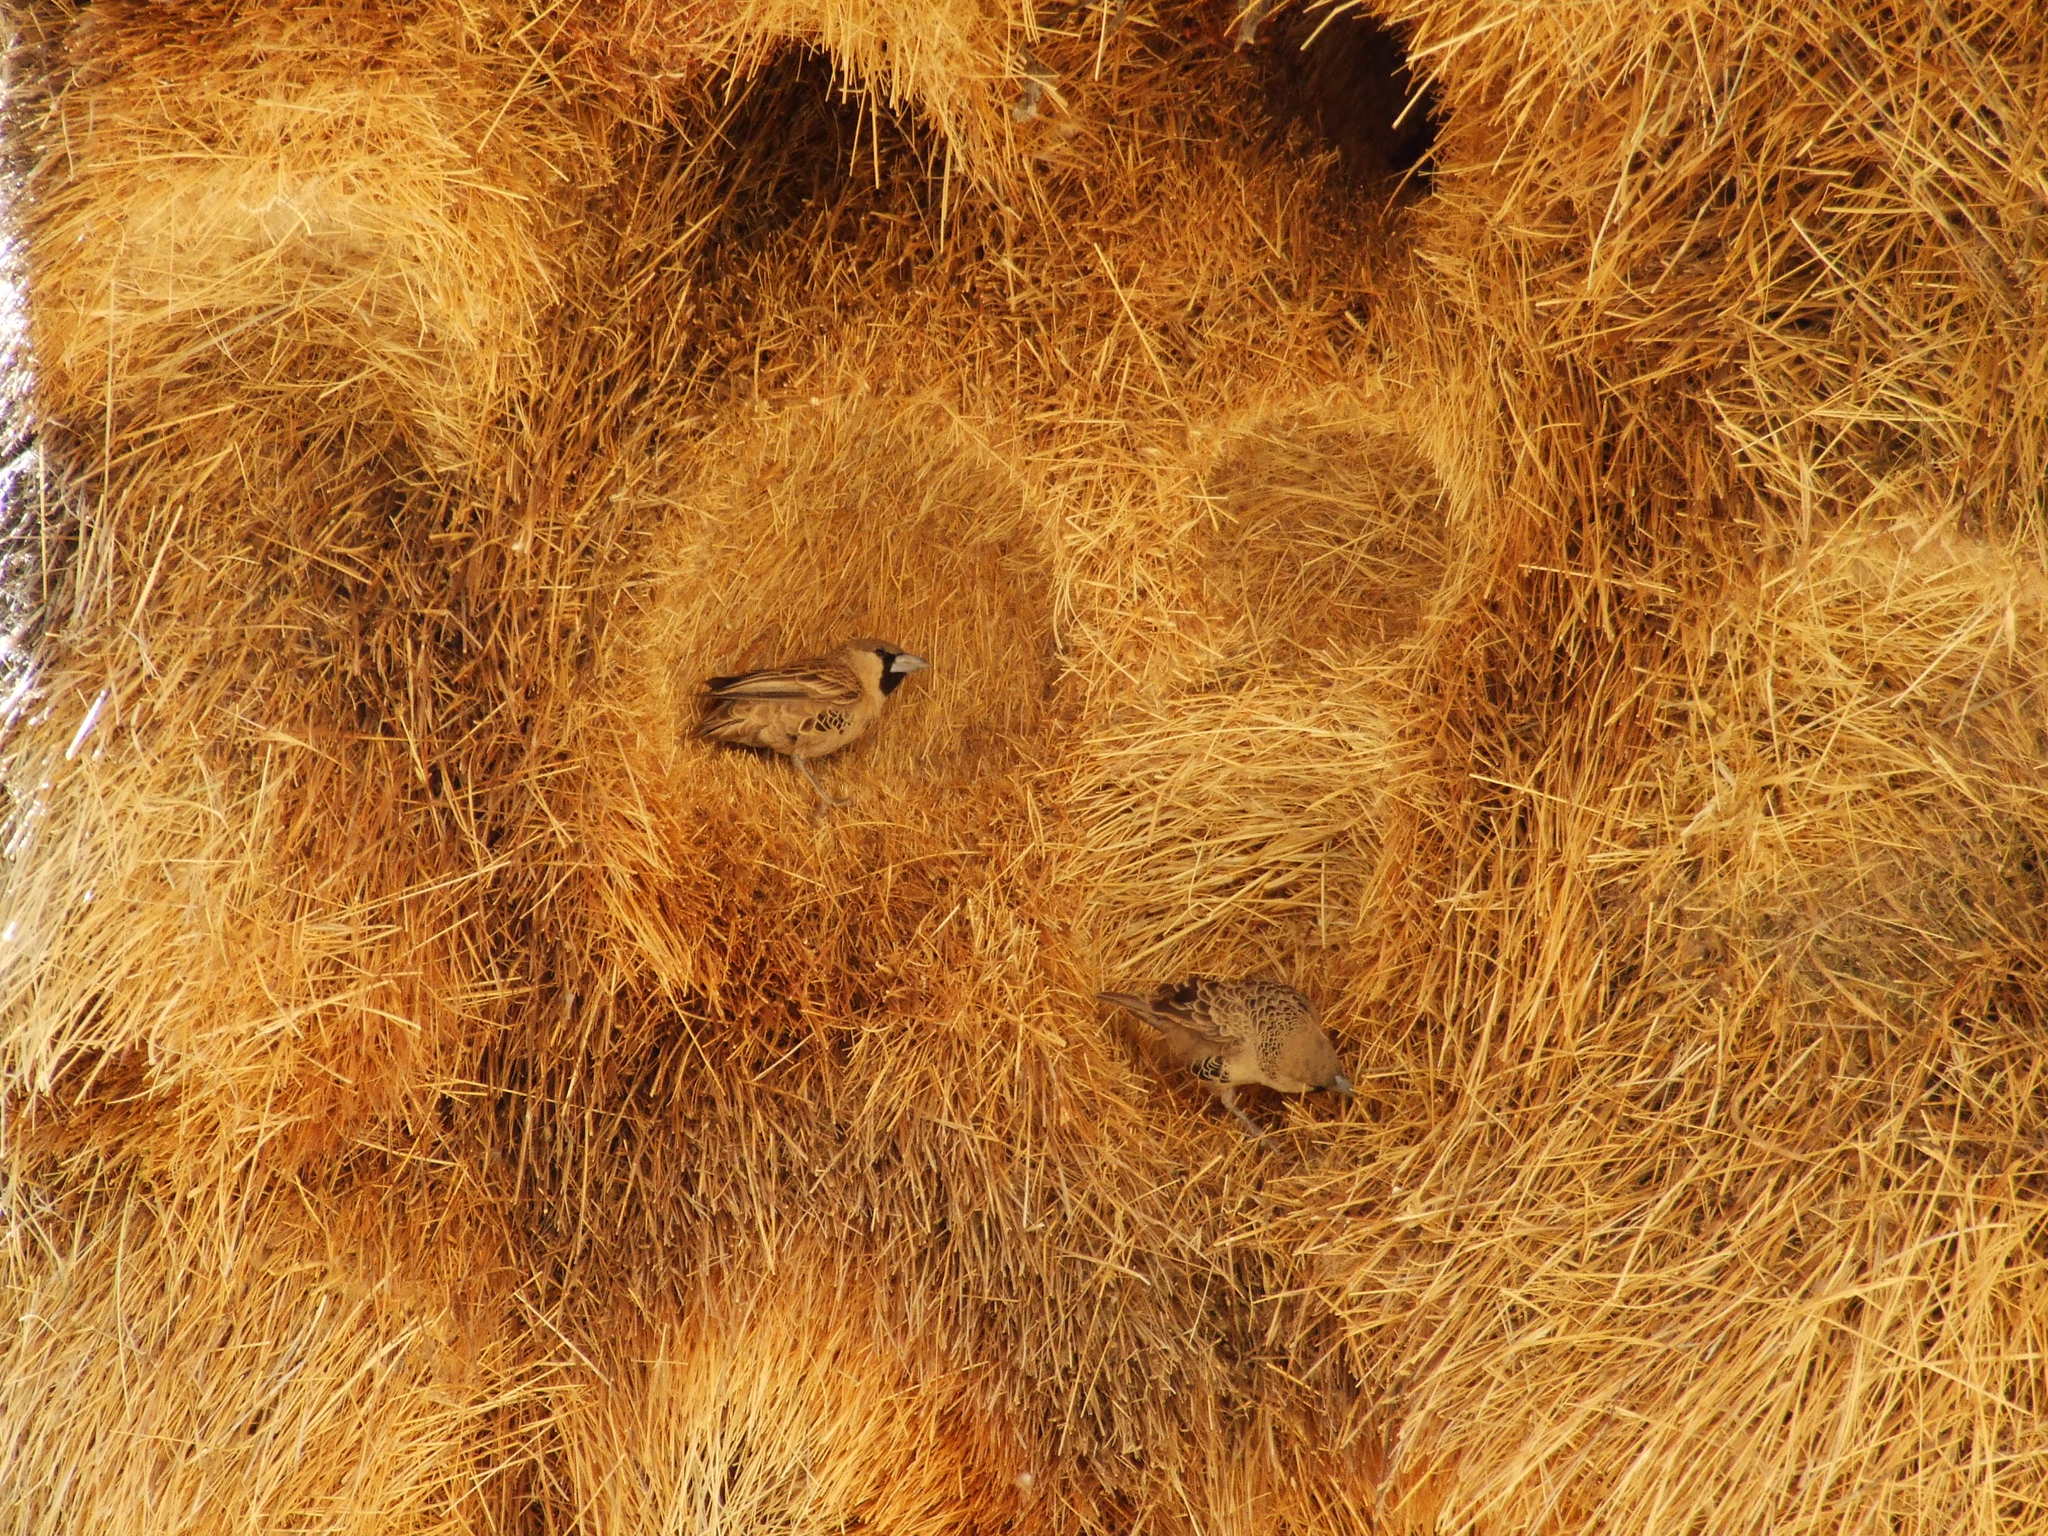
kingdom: Animalia
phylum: Chordata
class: Aves
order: Passeriformes
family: Passeridae
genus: Philetairus
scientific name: Philetairus socius
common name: Sociable weaver
